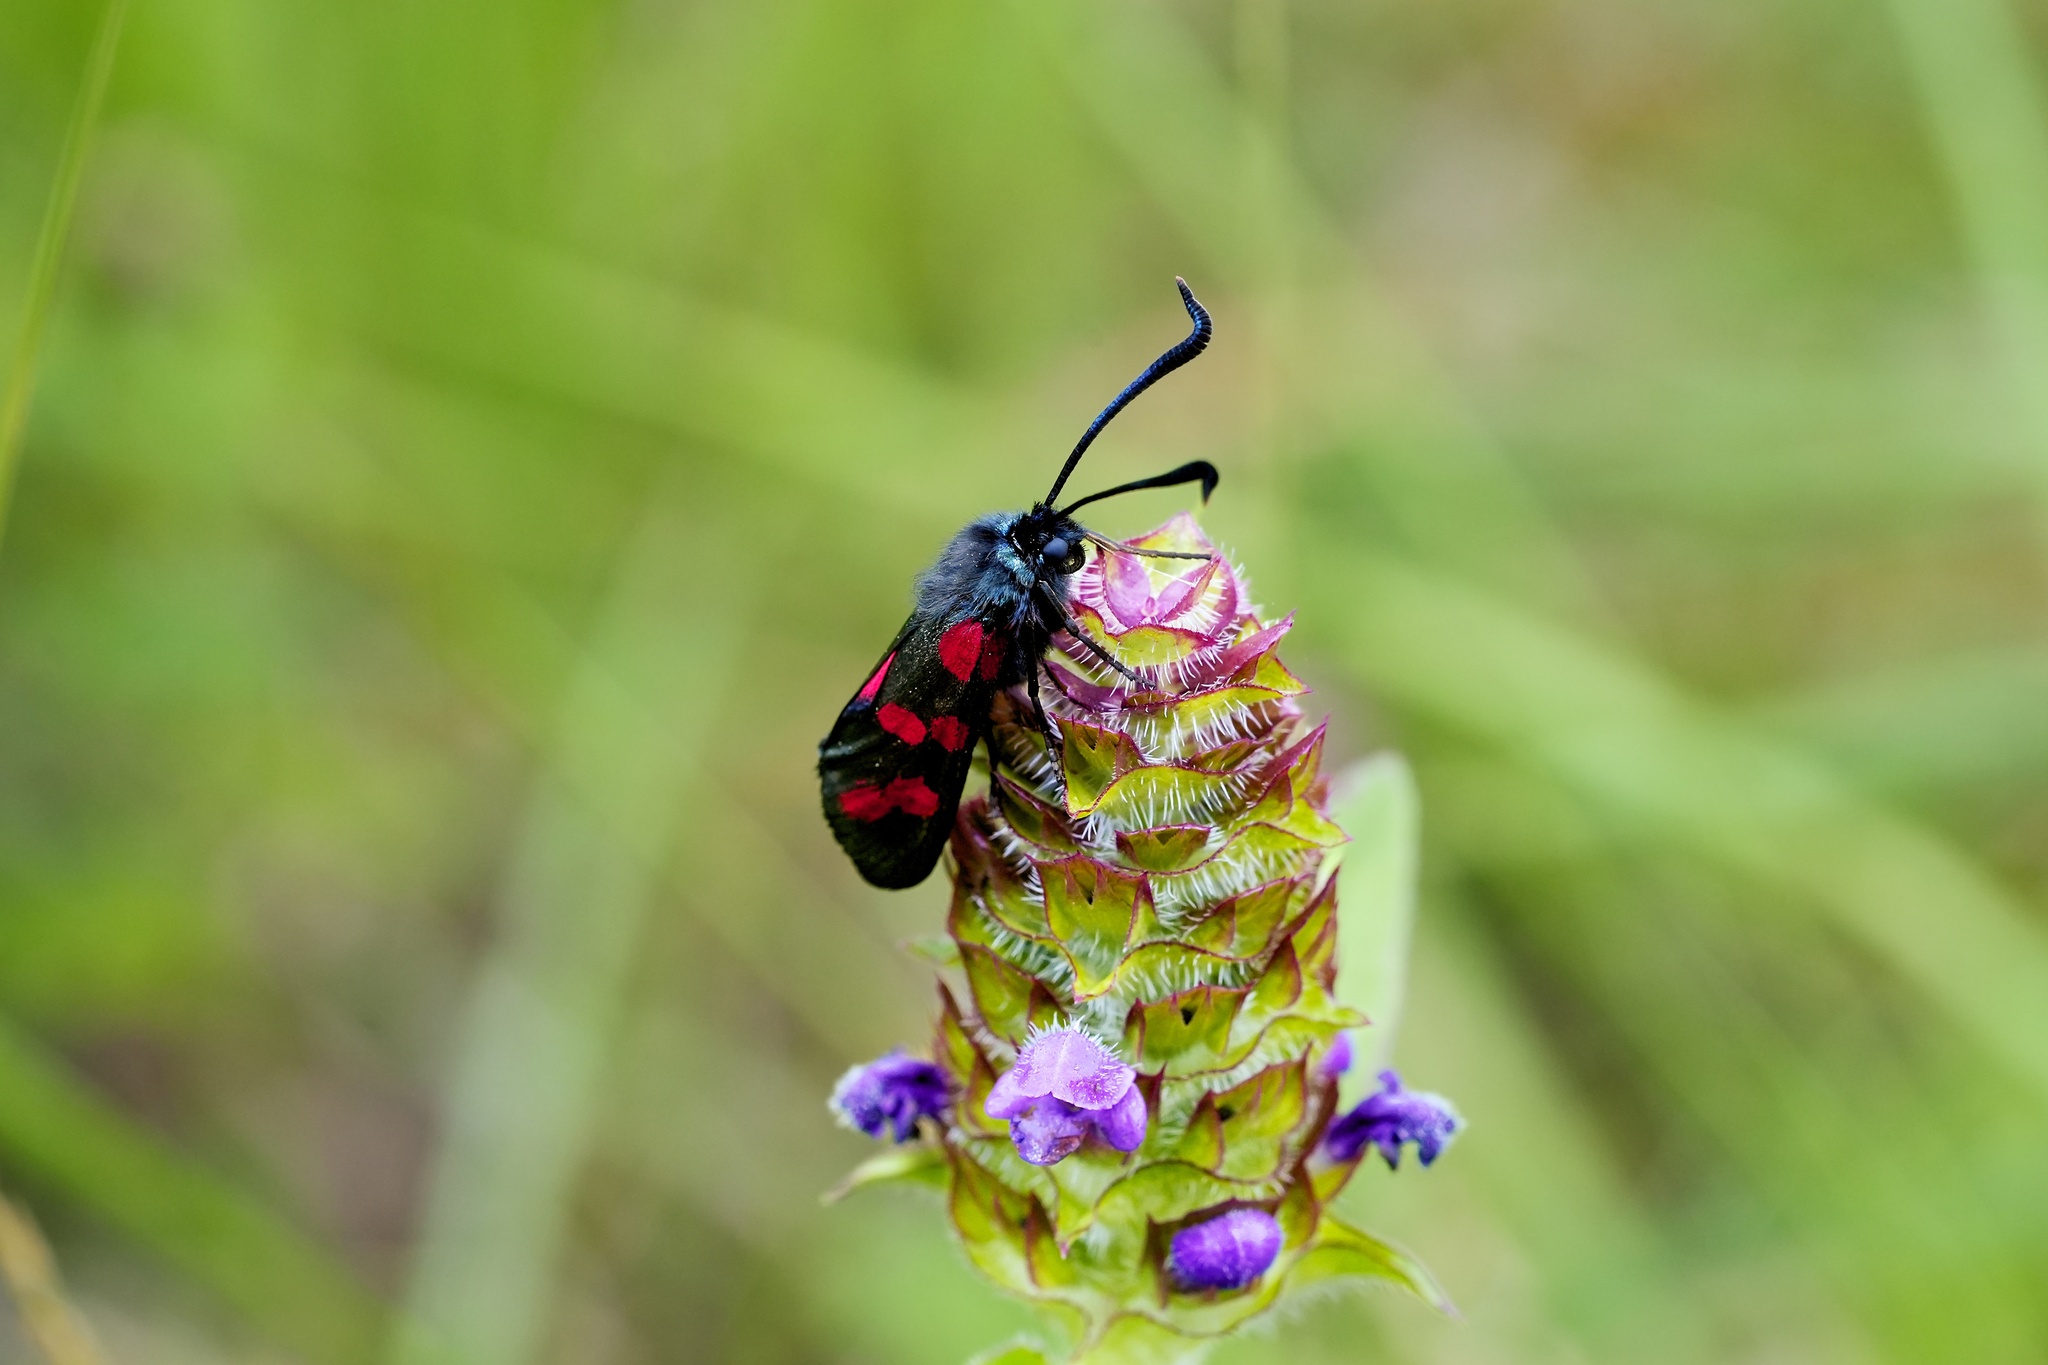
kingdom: Animalia
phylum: Arthropoda
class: Insecta
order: Lepidoptera
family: Zygaenidae
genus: Zygaena
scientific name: Zygaena filipendulae
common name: Six-spot burnet
